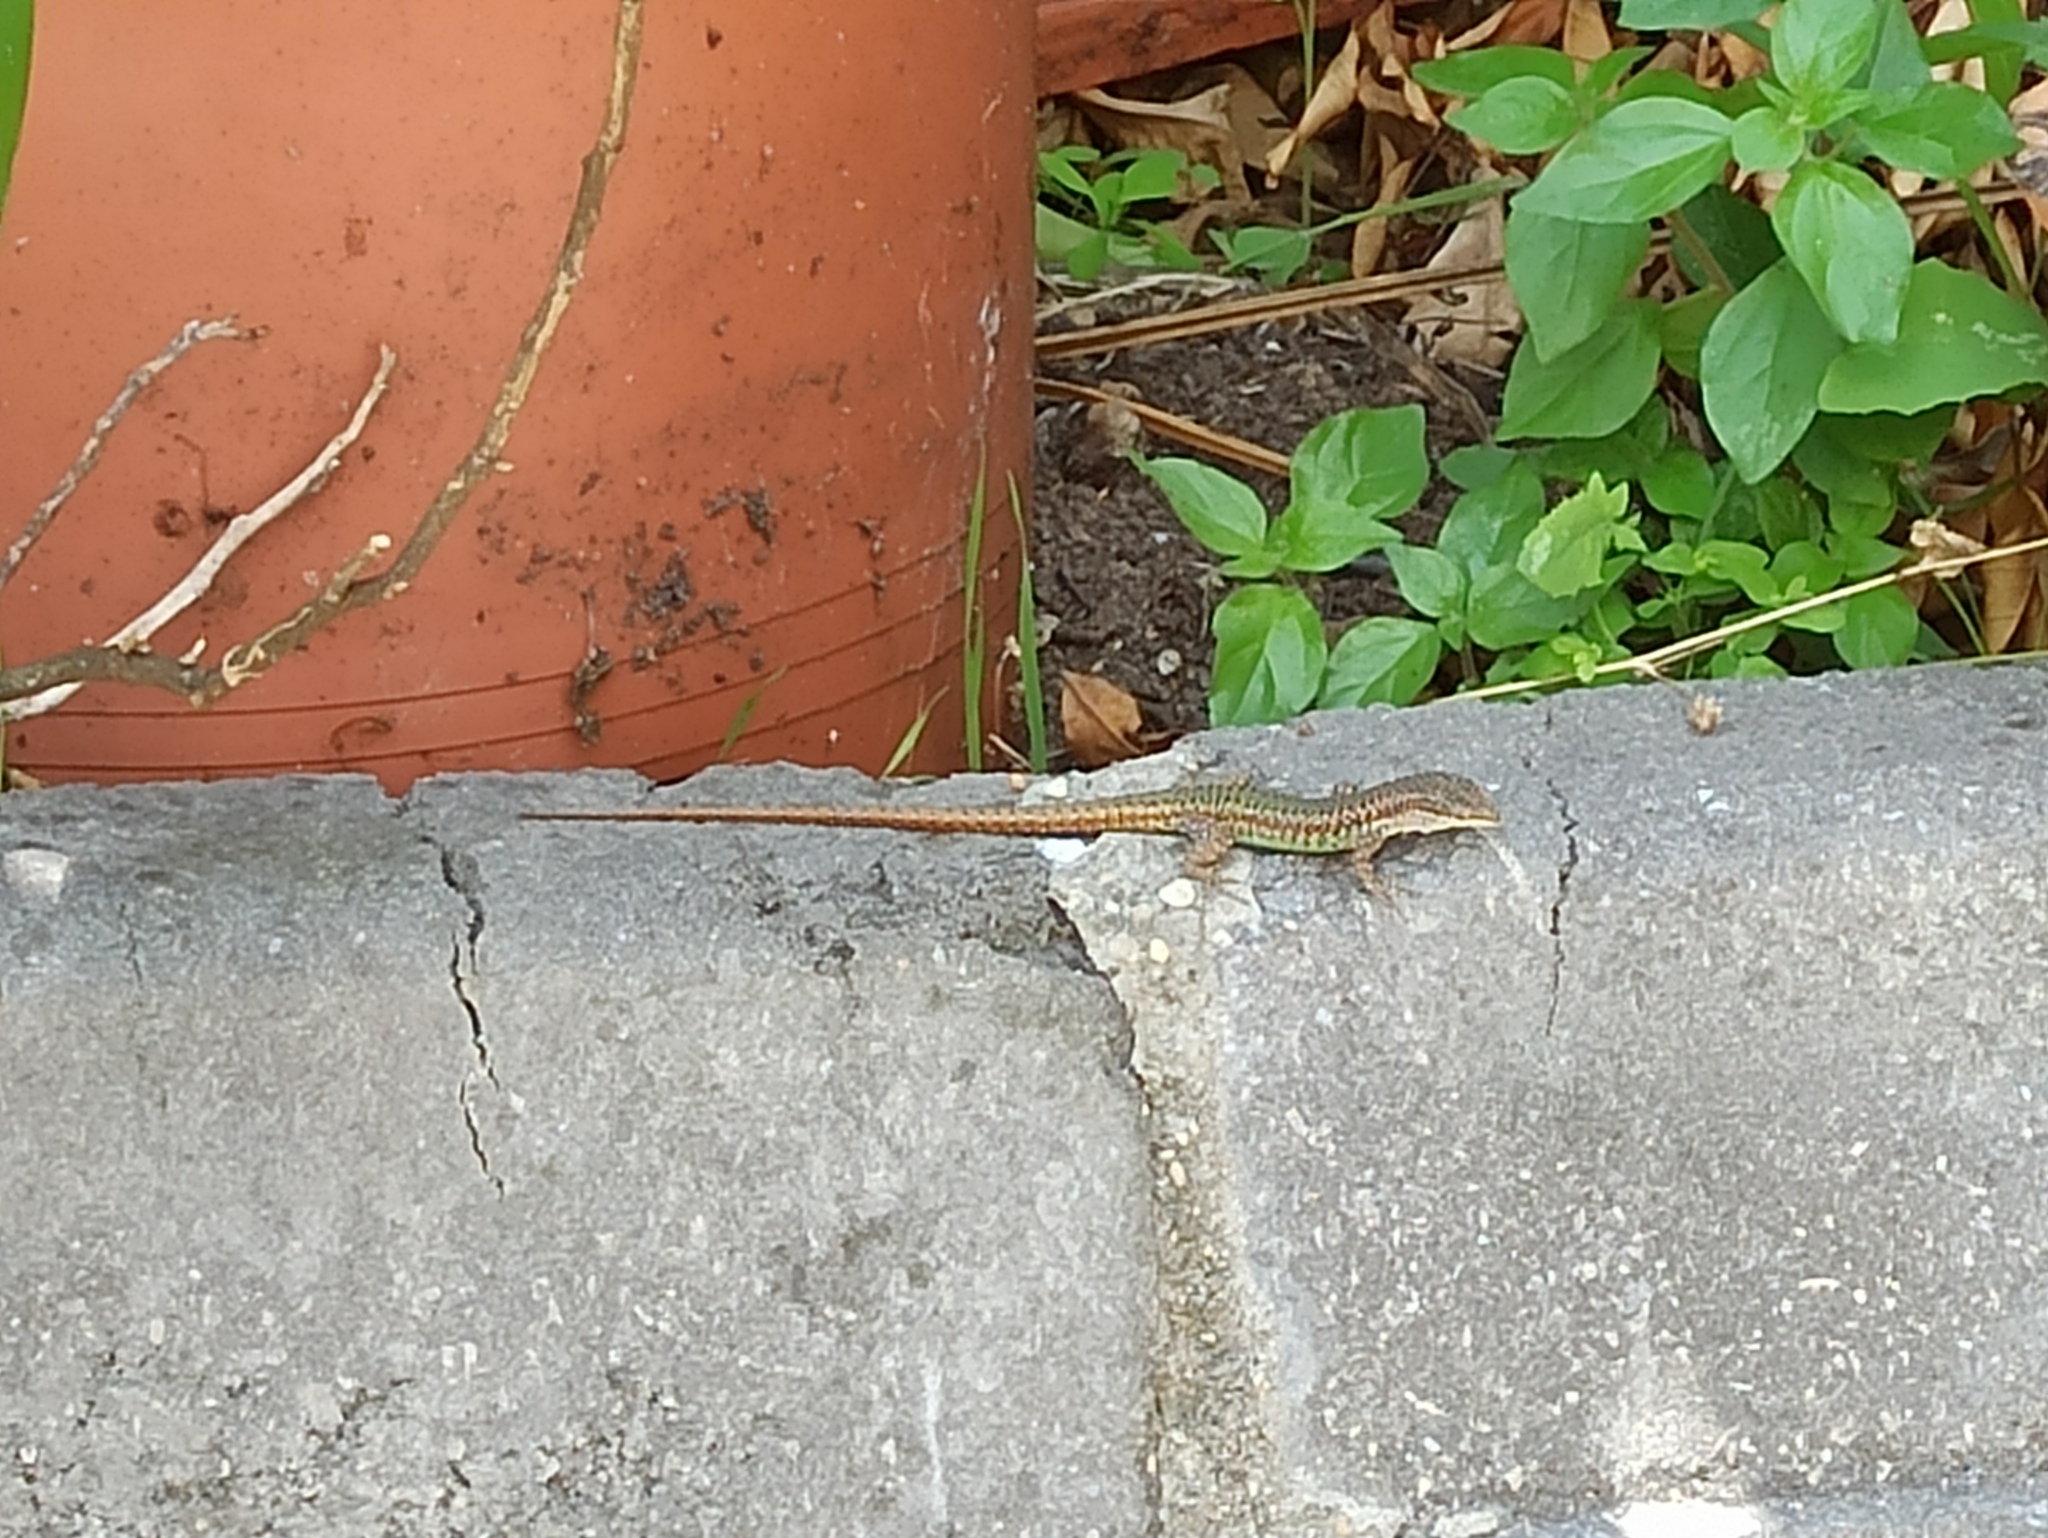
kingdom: Animalia
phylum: Chordata
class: Squamata
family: Lacertidae
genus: Podarcis
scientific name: Podarcis virescens
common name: Geniez’s wall lizard
